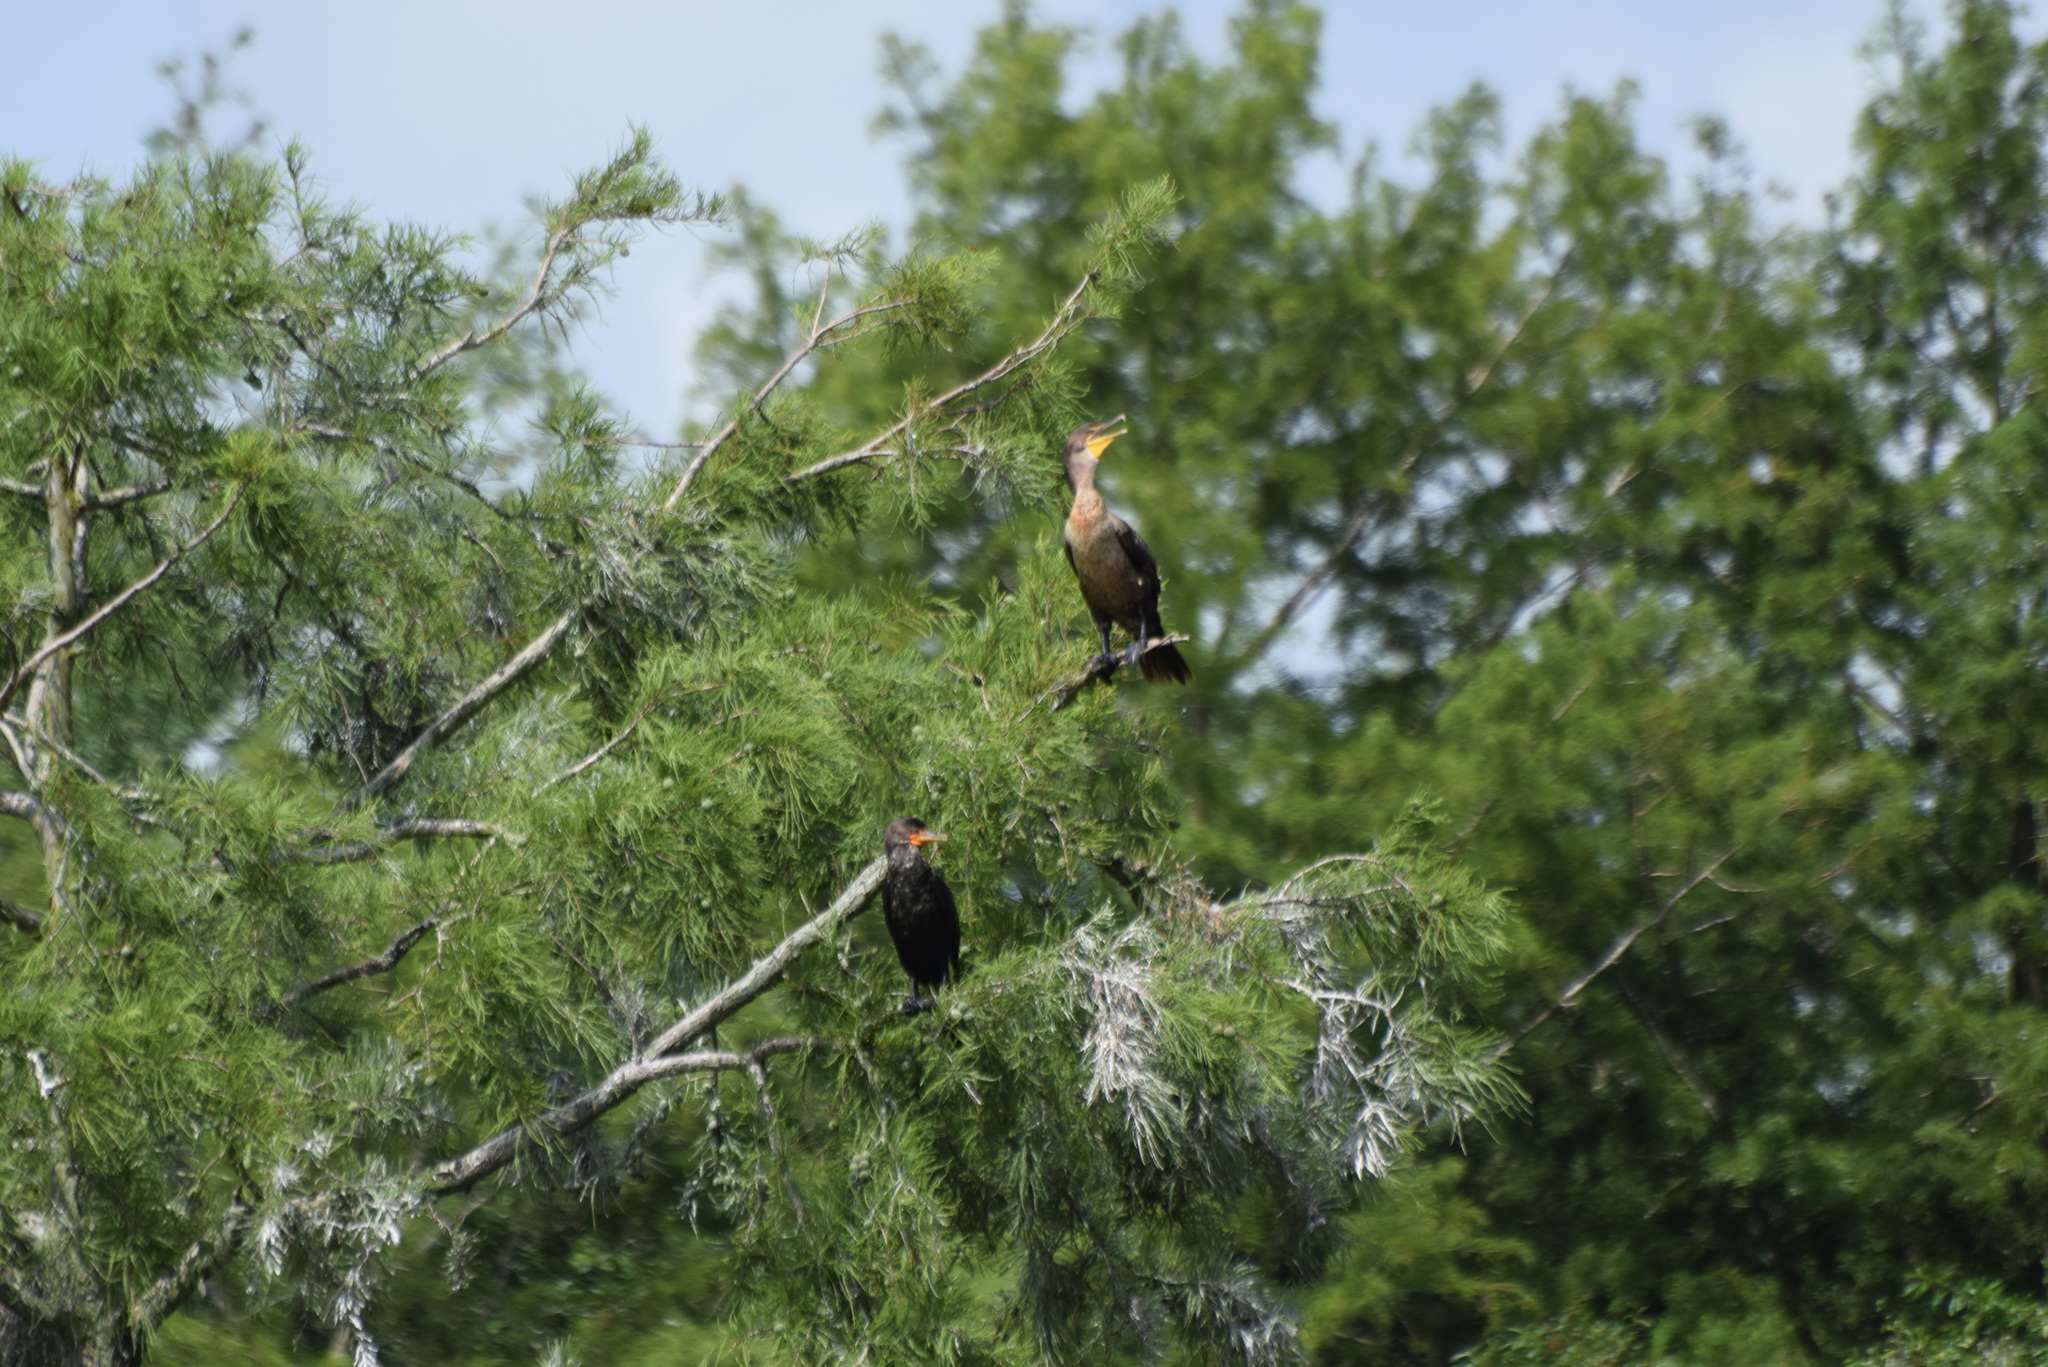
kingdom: Animalia
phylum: Chordata
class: Aves
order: Suliformes
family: Phalacrocoracidae
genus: Phalacrocorax
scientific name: Phalacrocorax auritus
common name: Double-crested cormorant
